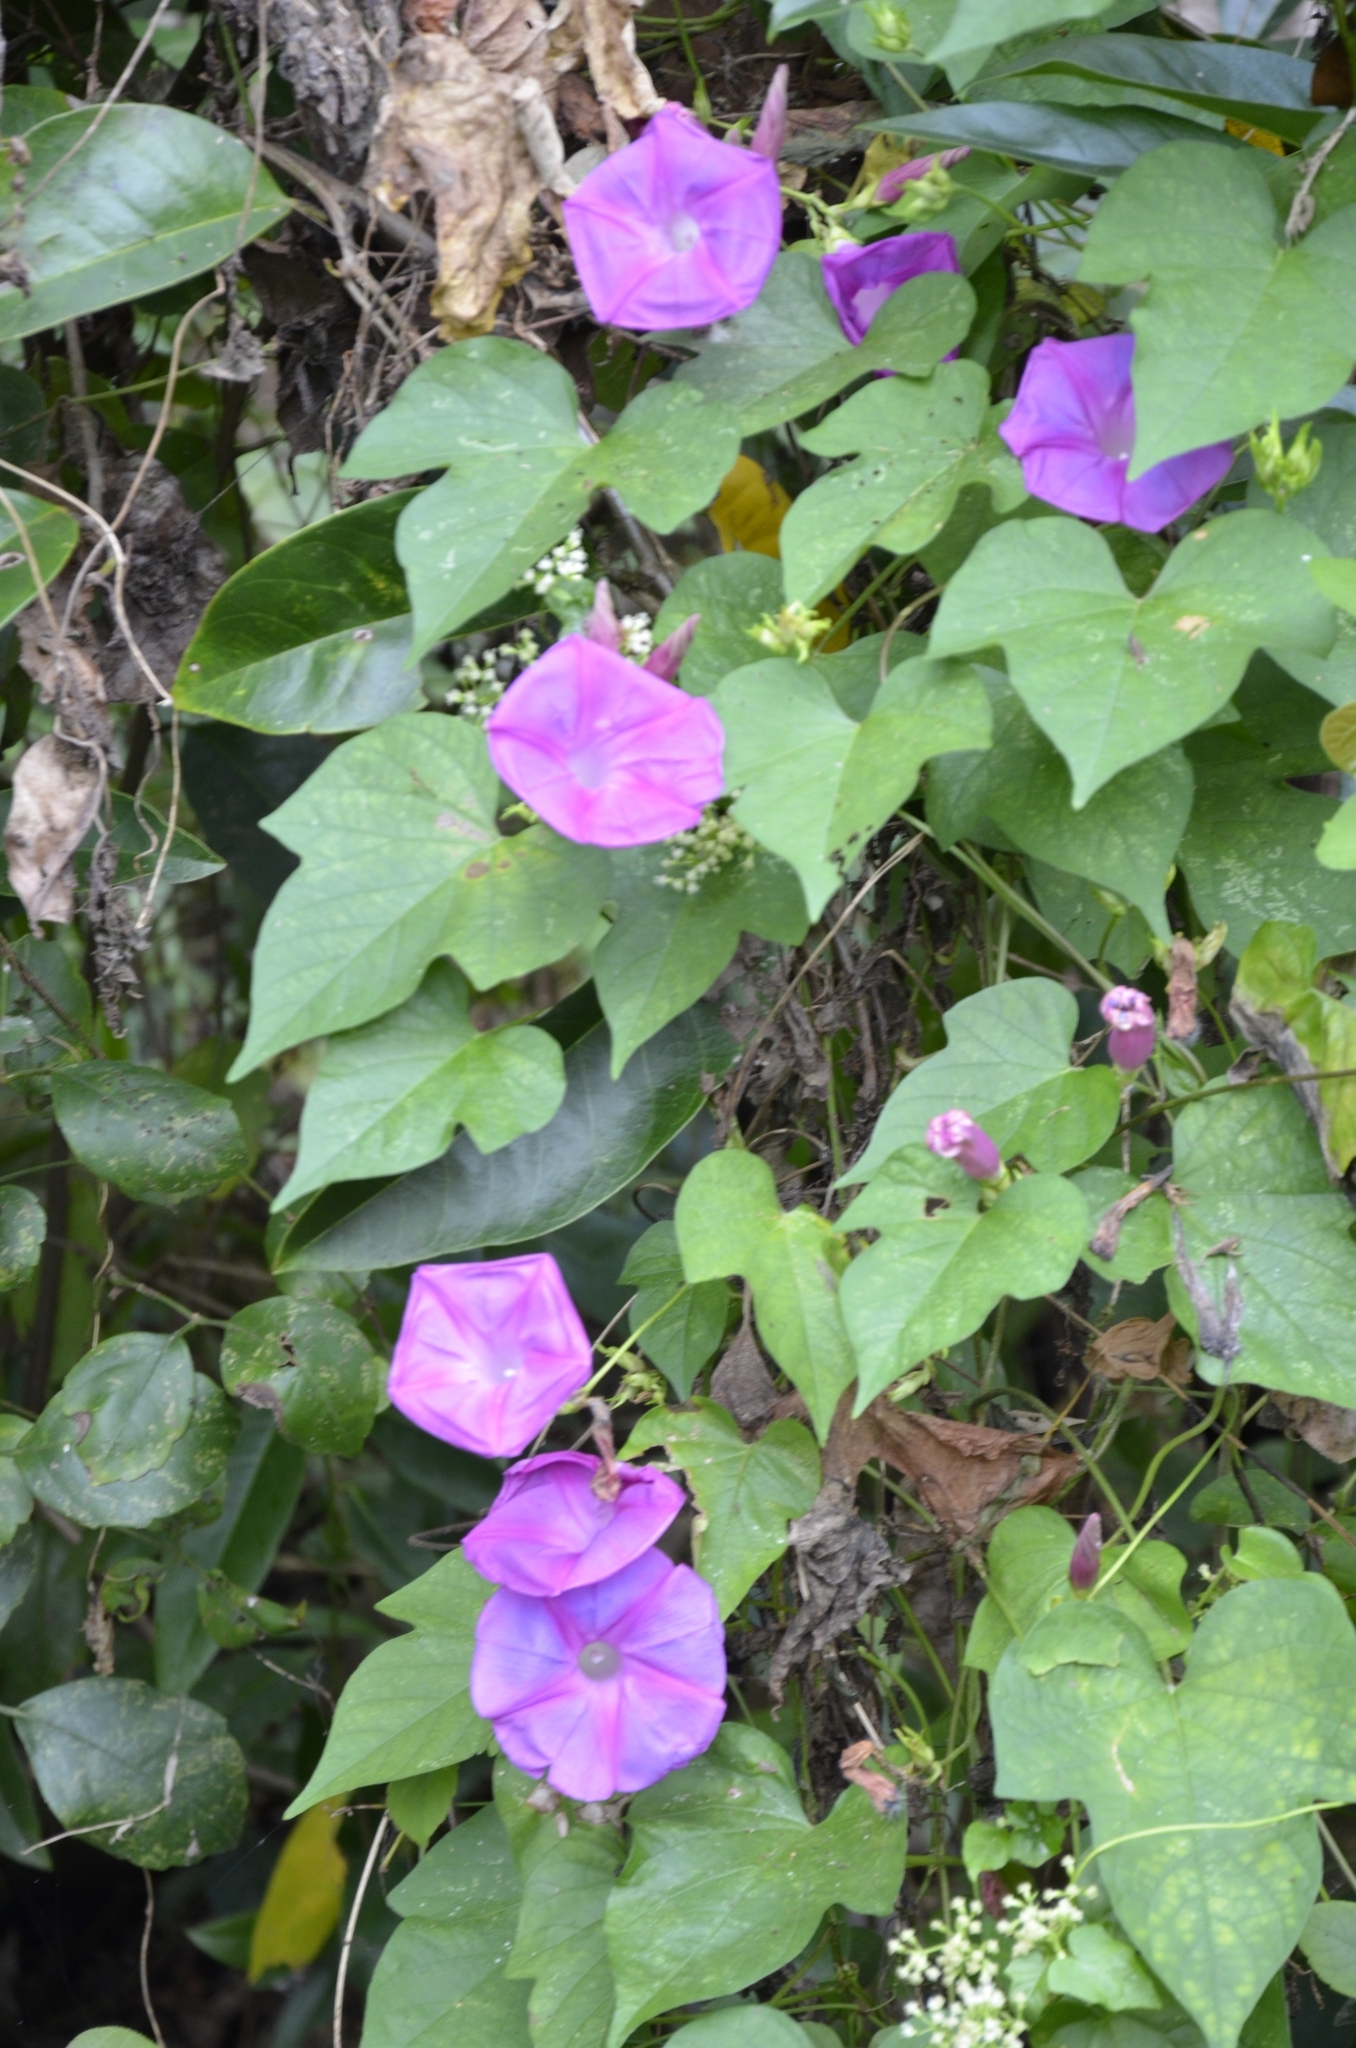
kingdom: Plantae
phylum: Tracheophyta
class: Magnoliopsida
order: Solanales
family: Convolvulaceae
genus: Ipomoea
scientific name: Ipomoea indica
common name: Blue dawnflower
